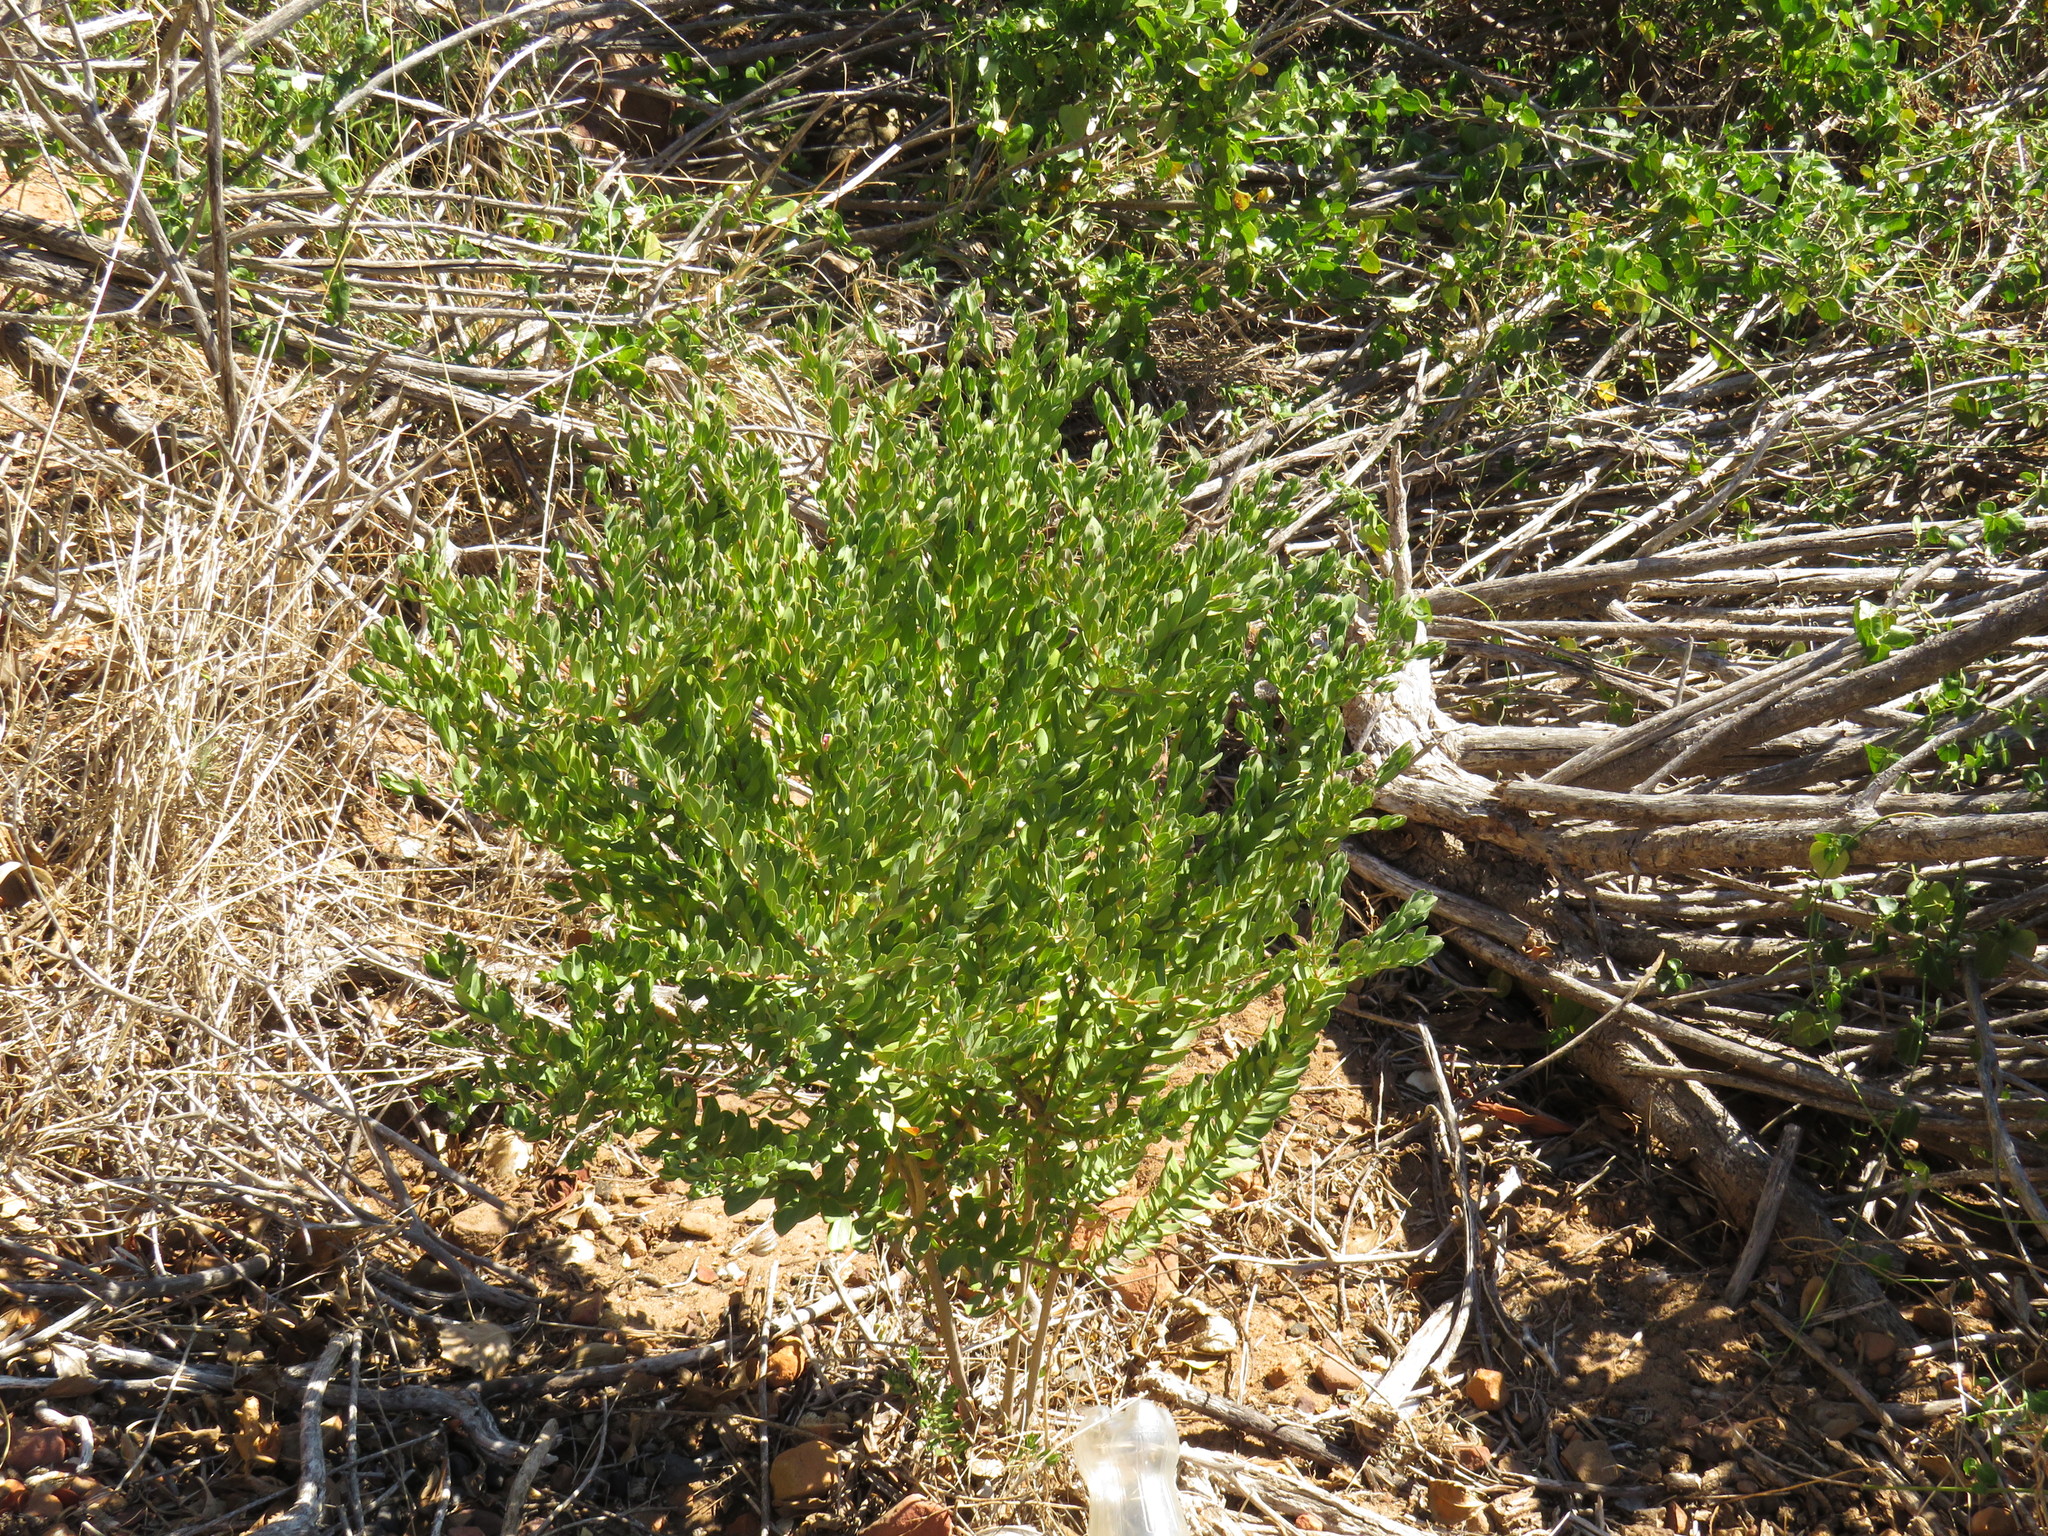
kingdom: Plantae
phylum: Tracheophyta
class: Magnoliopsida
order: Fabales
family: Polygalaceae
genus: Polygala
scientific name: Polygala myrtifolia
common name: Myrtle-leaf milkwort
